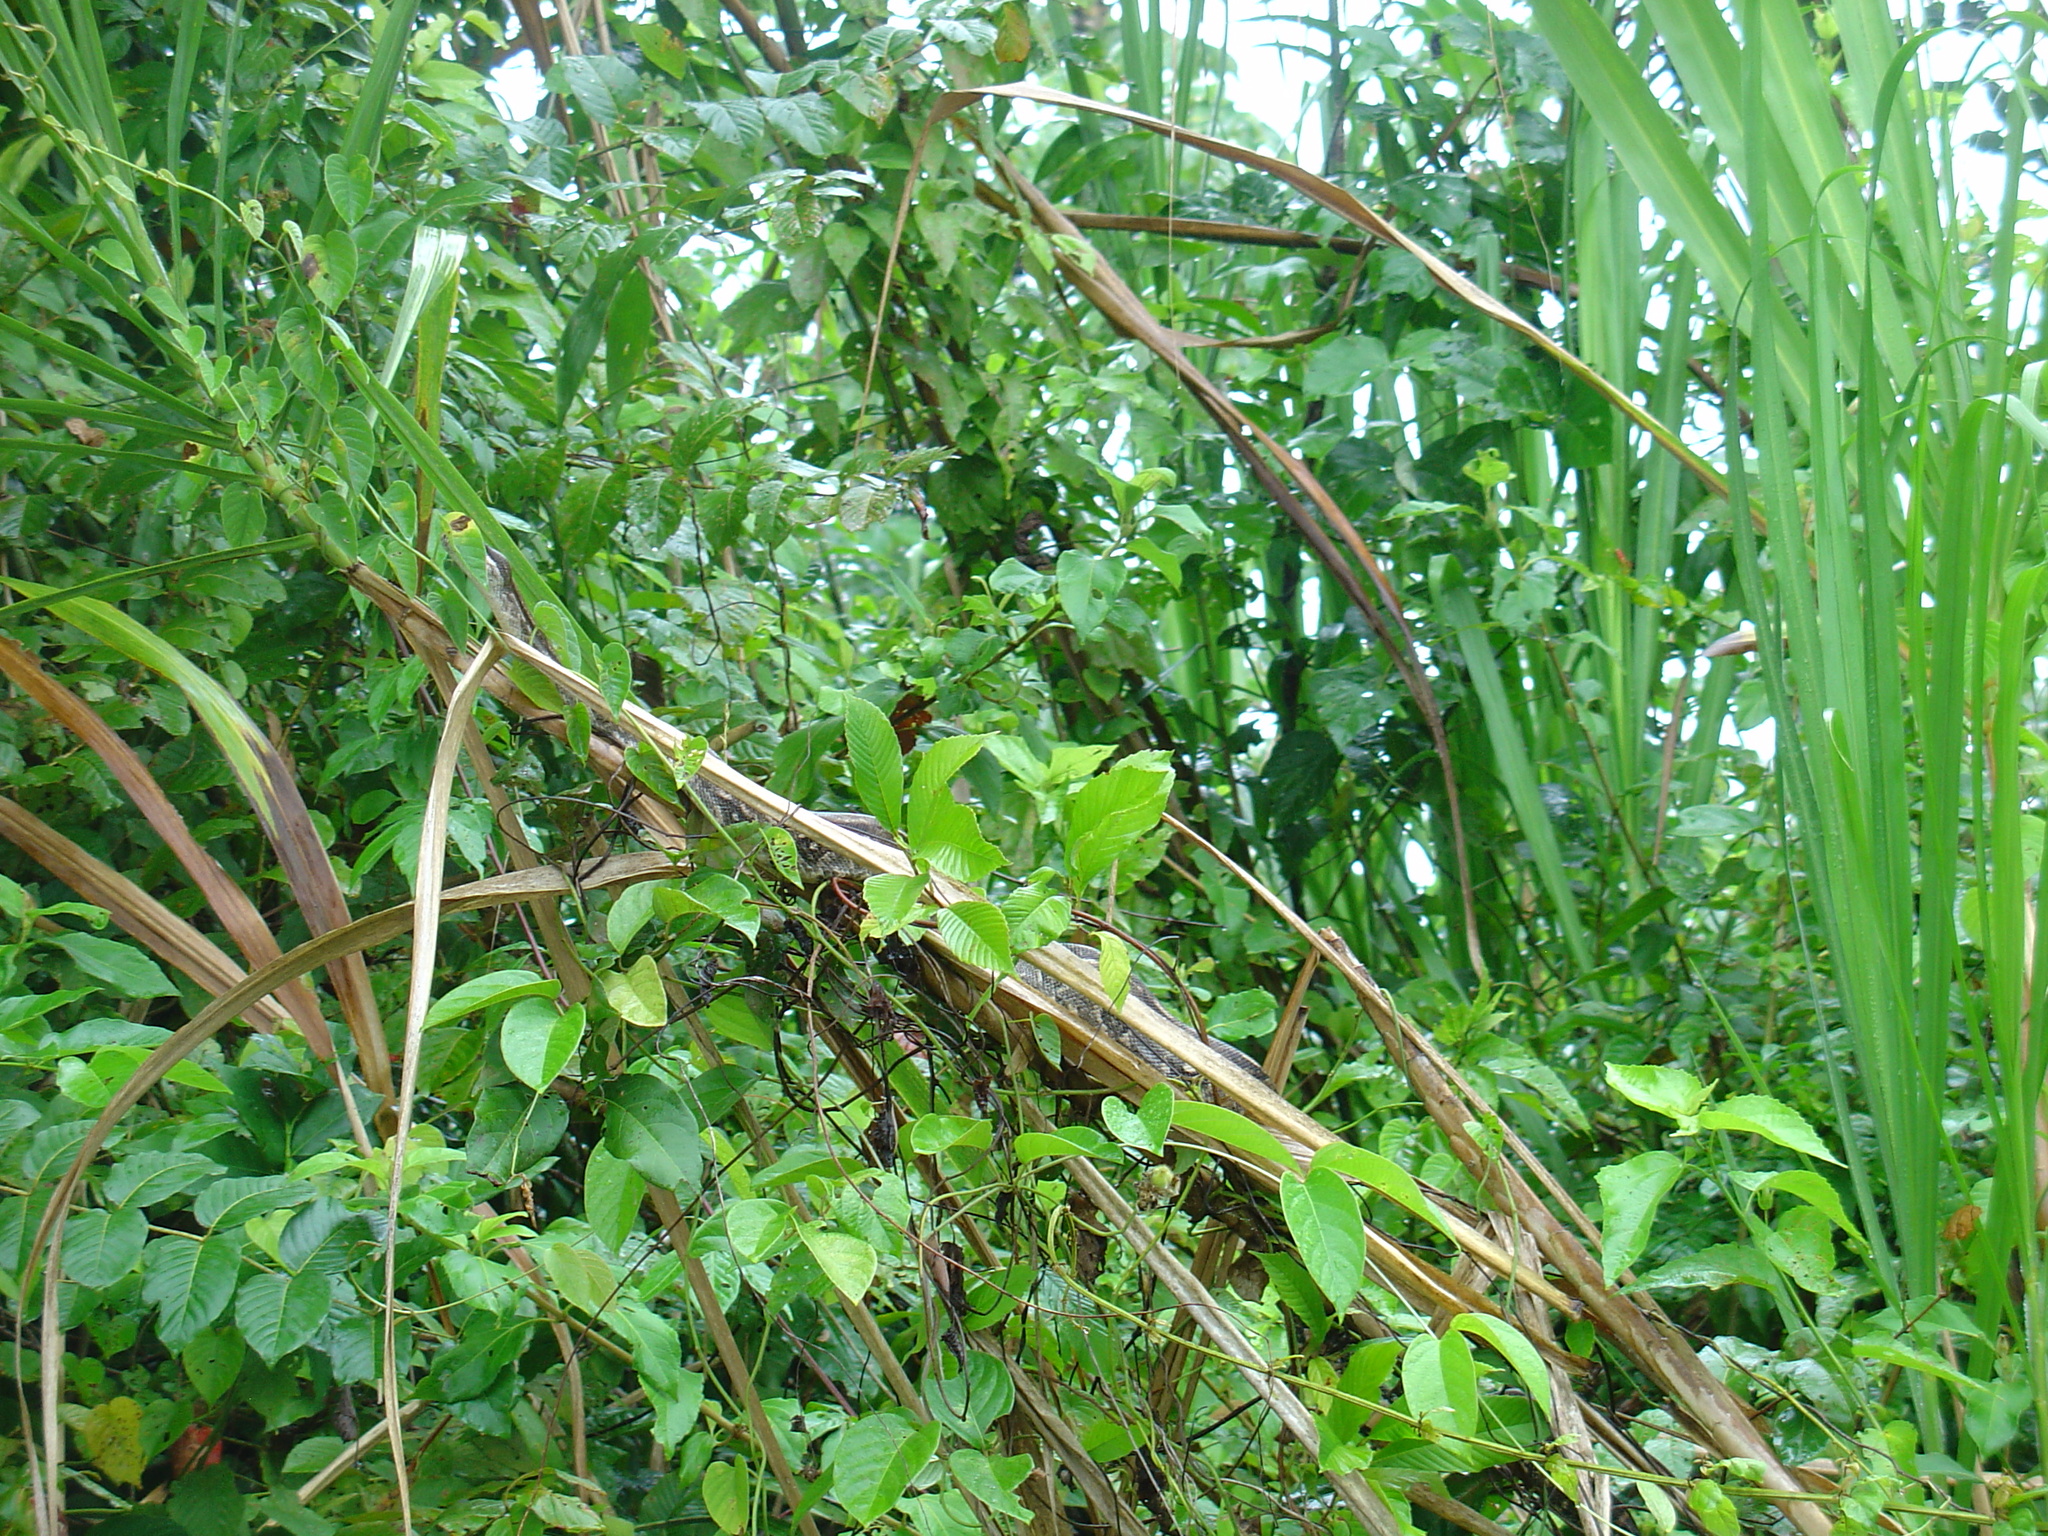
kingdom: Animalia
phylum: Chordata
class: Squamata
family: Boidae
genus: Boa
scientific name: Boa imperator
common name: Central american boa
